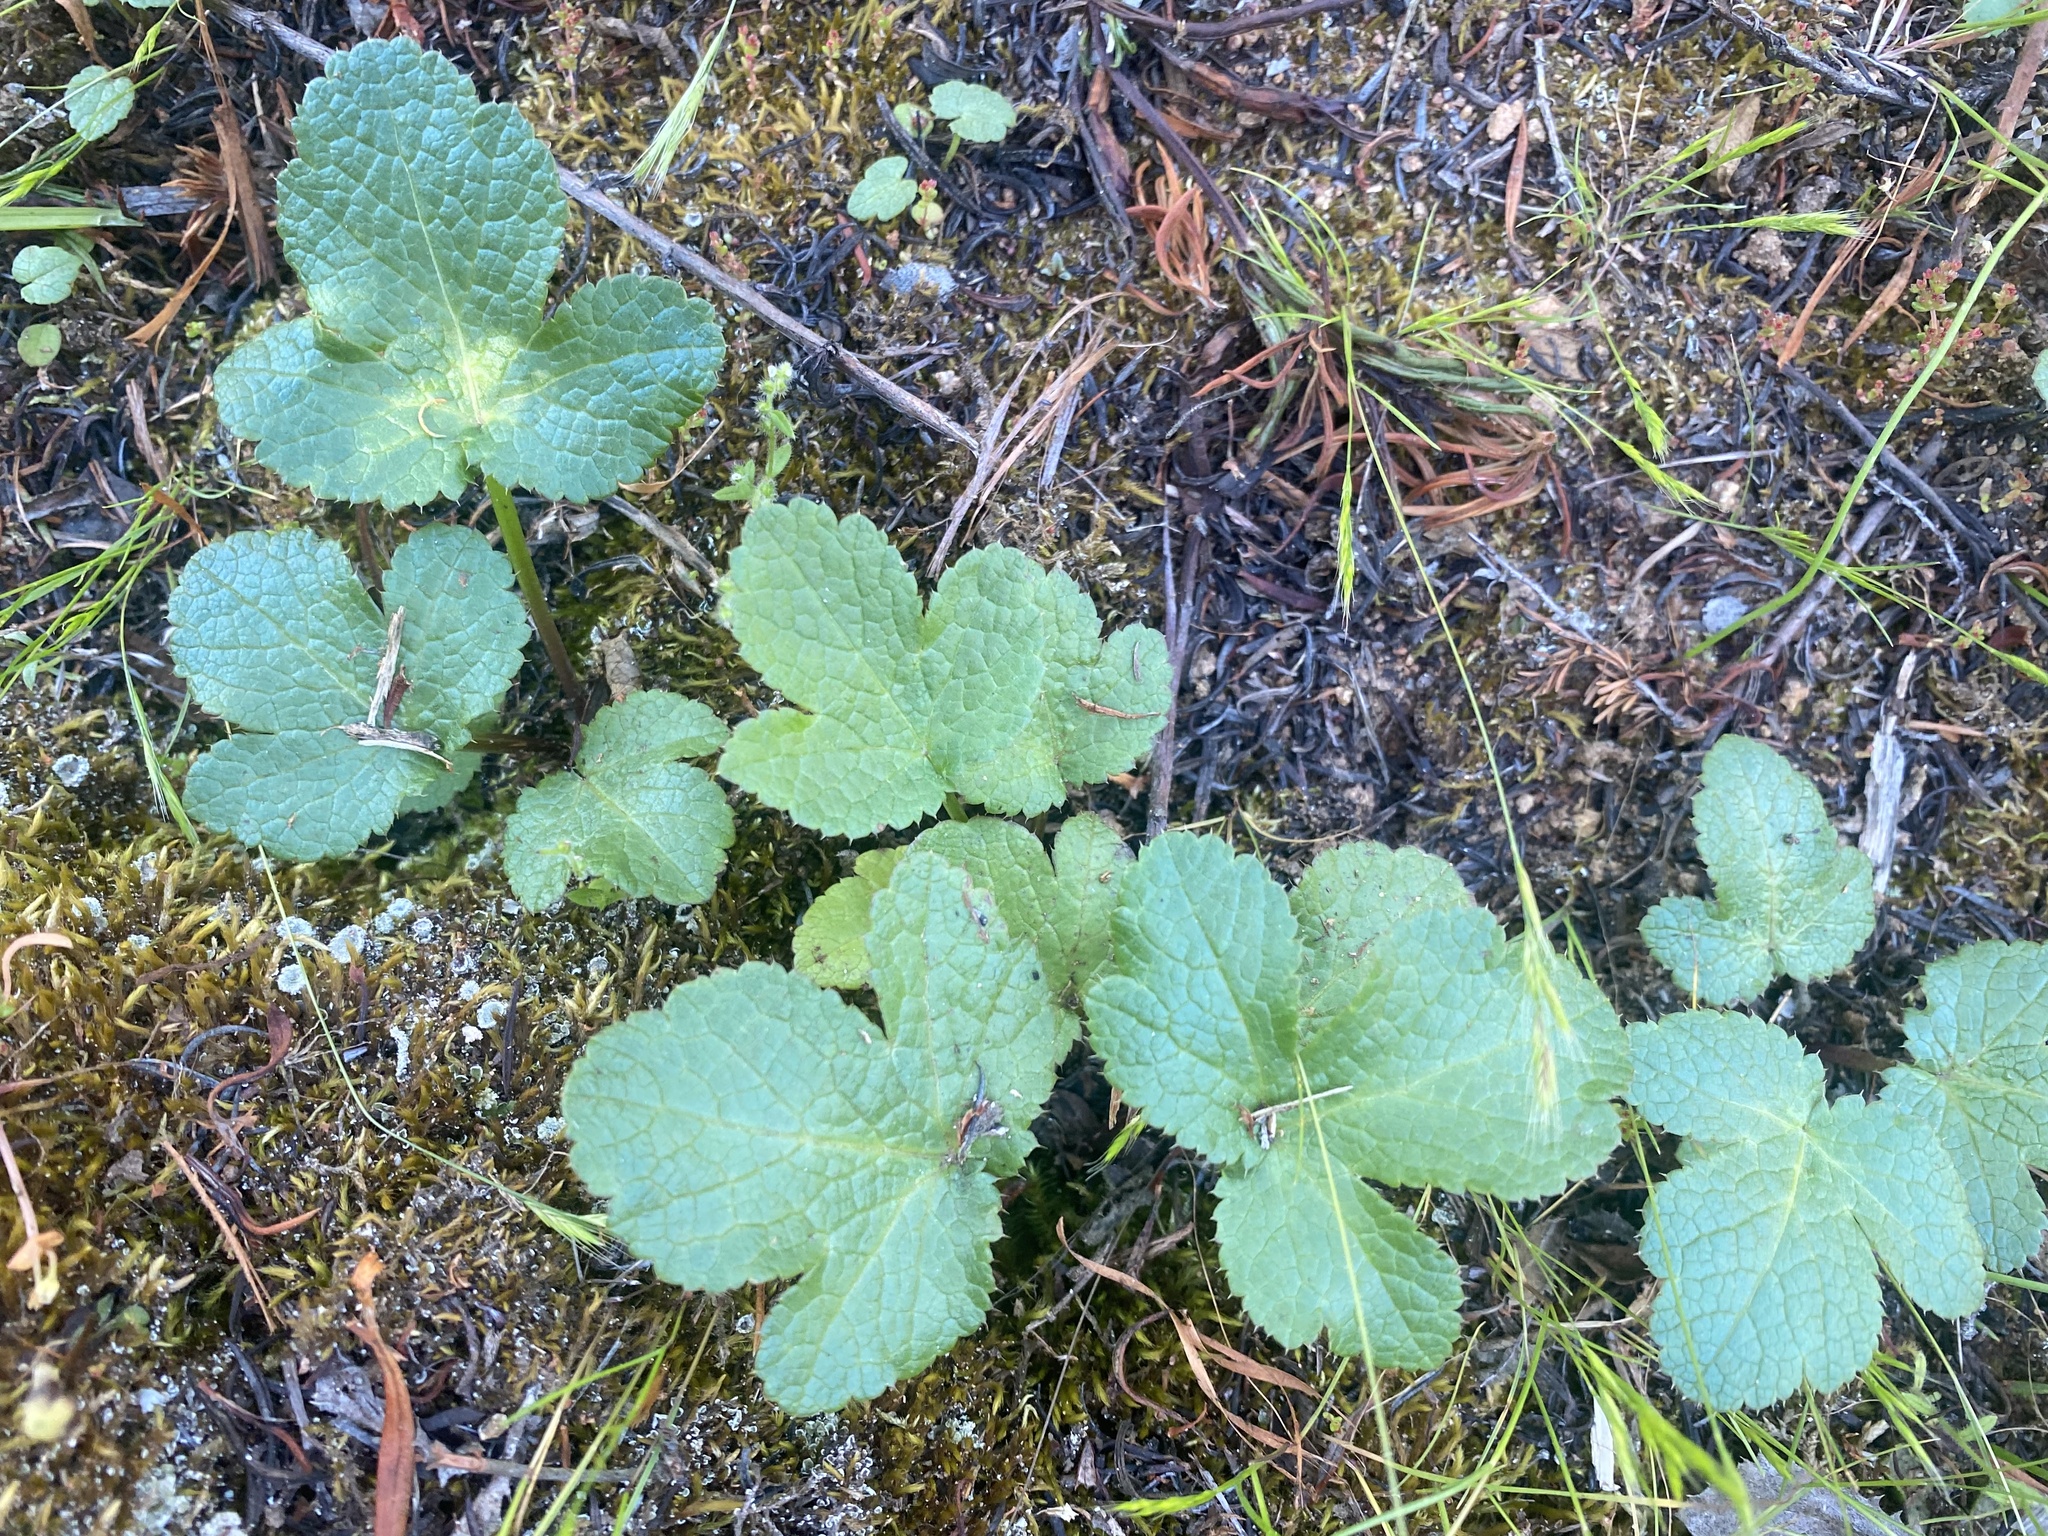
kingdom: Plantae
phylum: Tracheophyta
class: Magnoliopsida
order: Apiales
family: Apiaceae
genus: Sanicula
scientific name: Sanicula crassicaulis
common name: Western snakeroot
